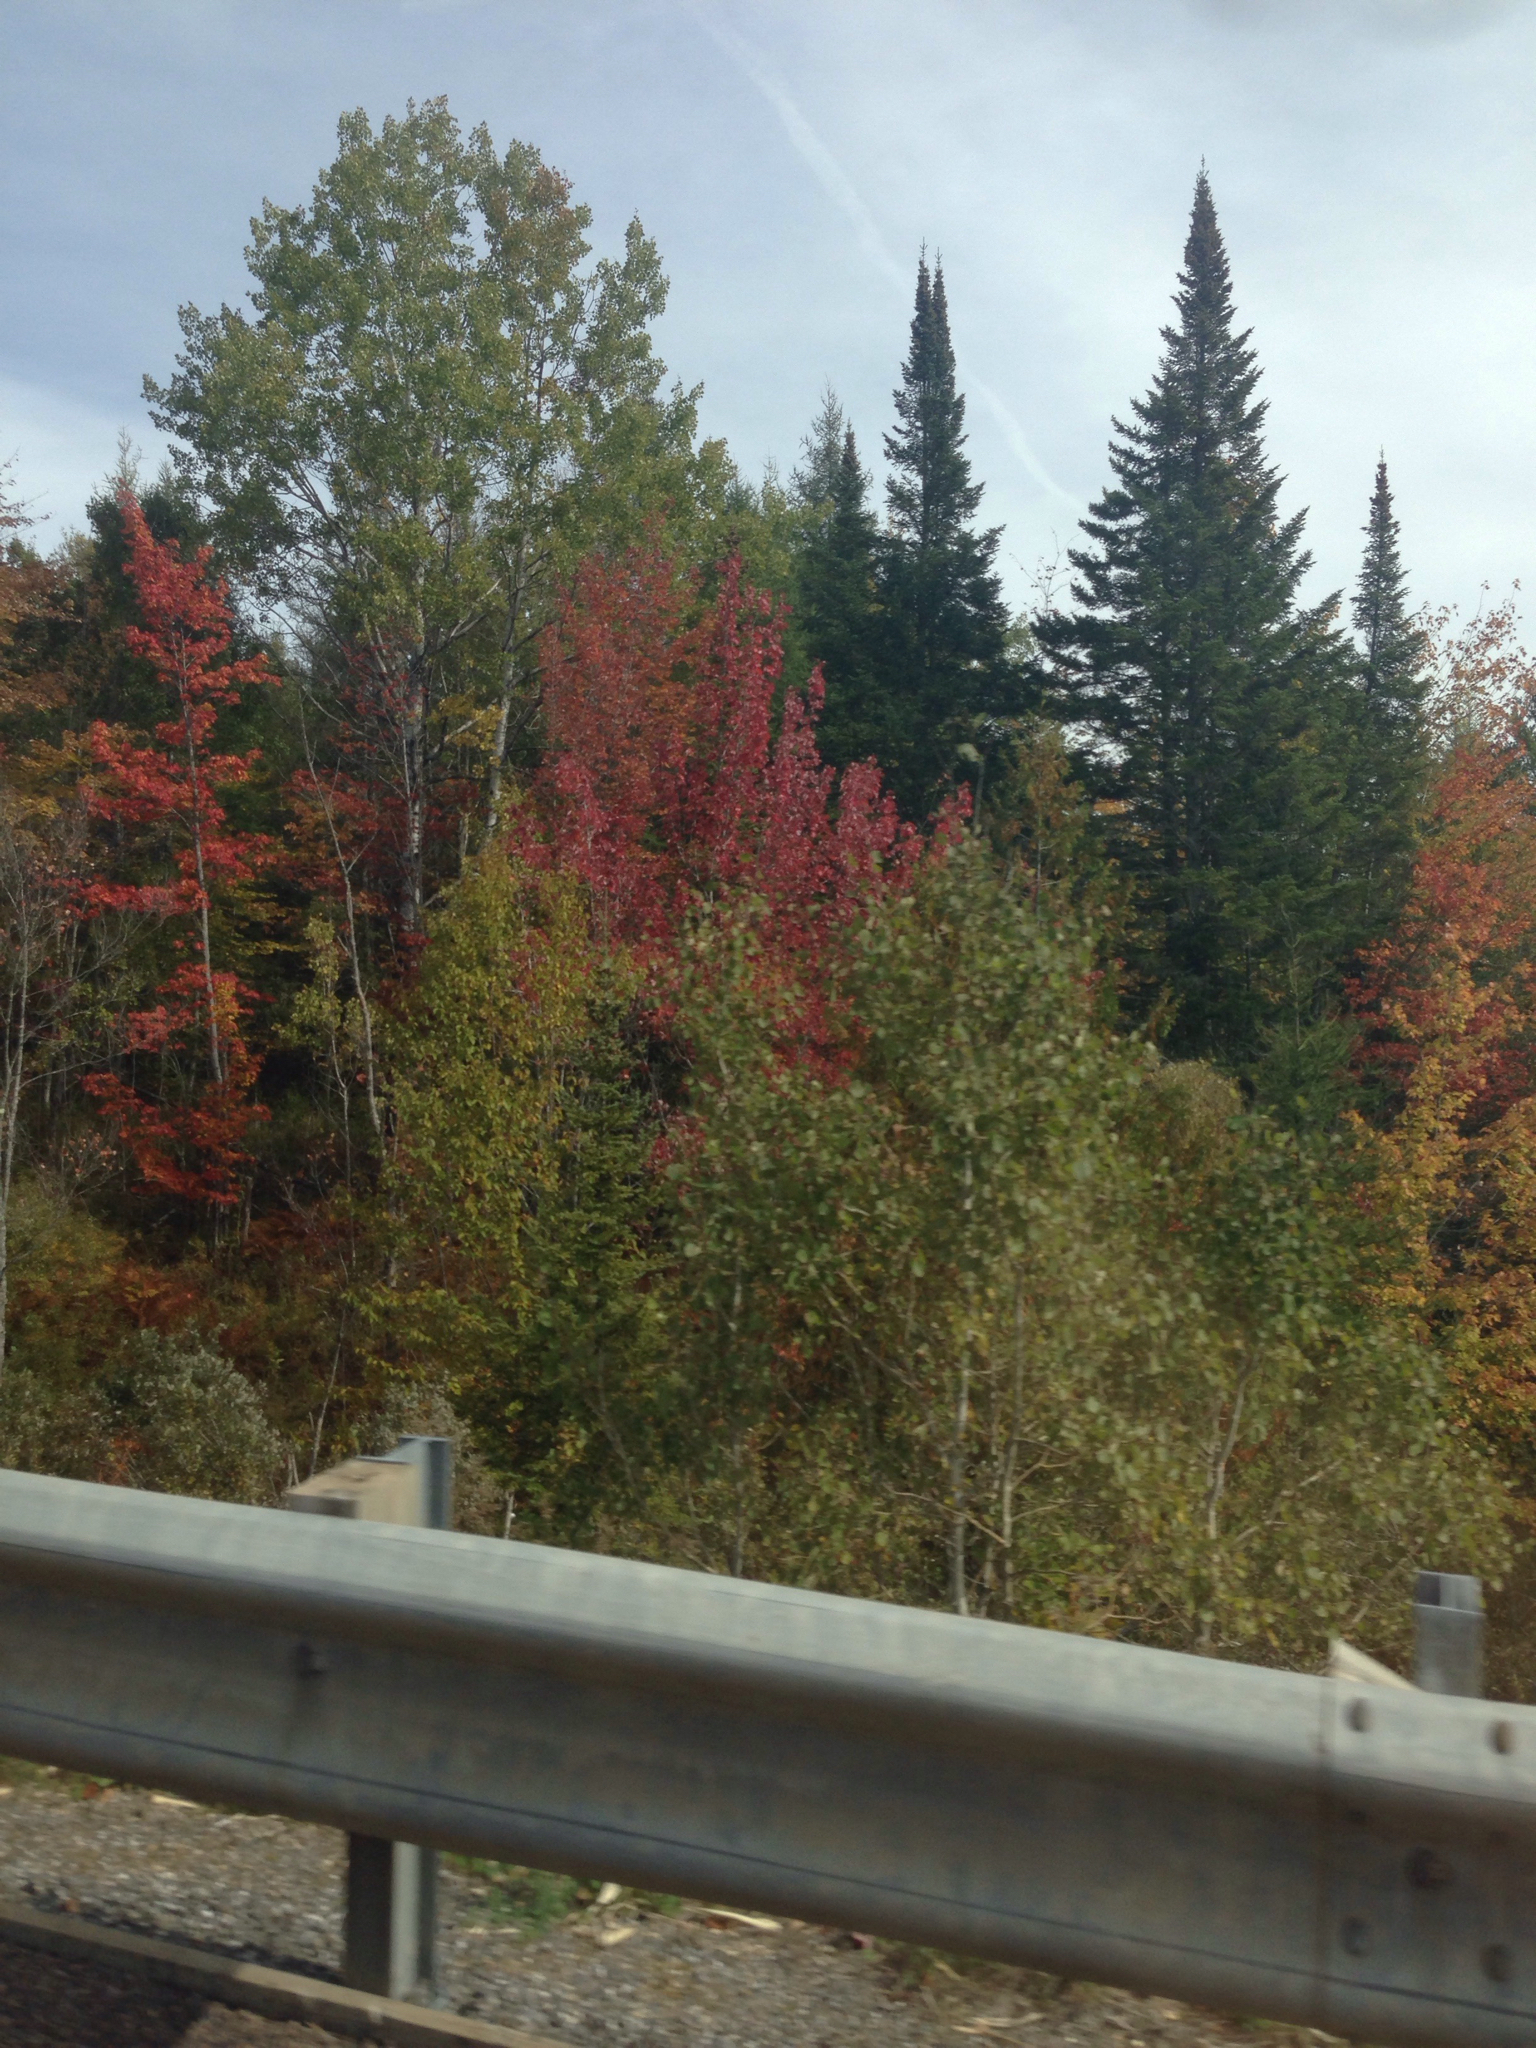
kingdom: Plantae
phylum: Tracheophyta
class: Pinopsida
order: Pinales
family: Cupressaceae
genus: Thuja
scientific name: Thuja occidentalis
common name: Northern white-cedar
